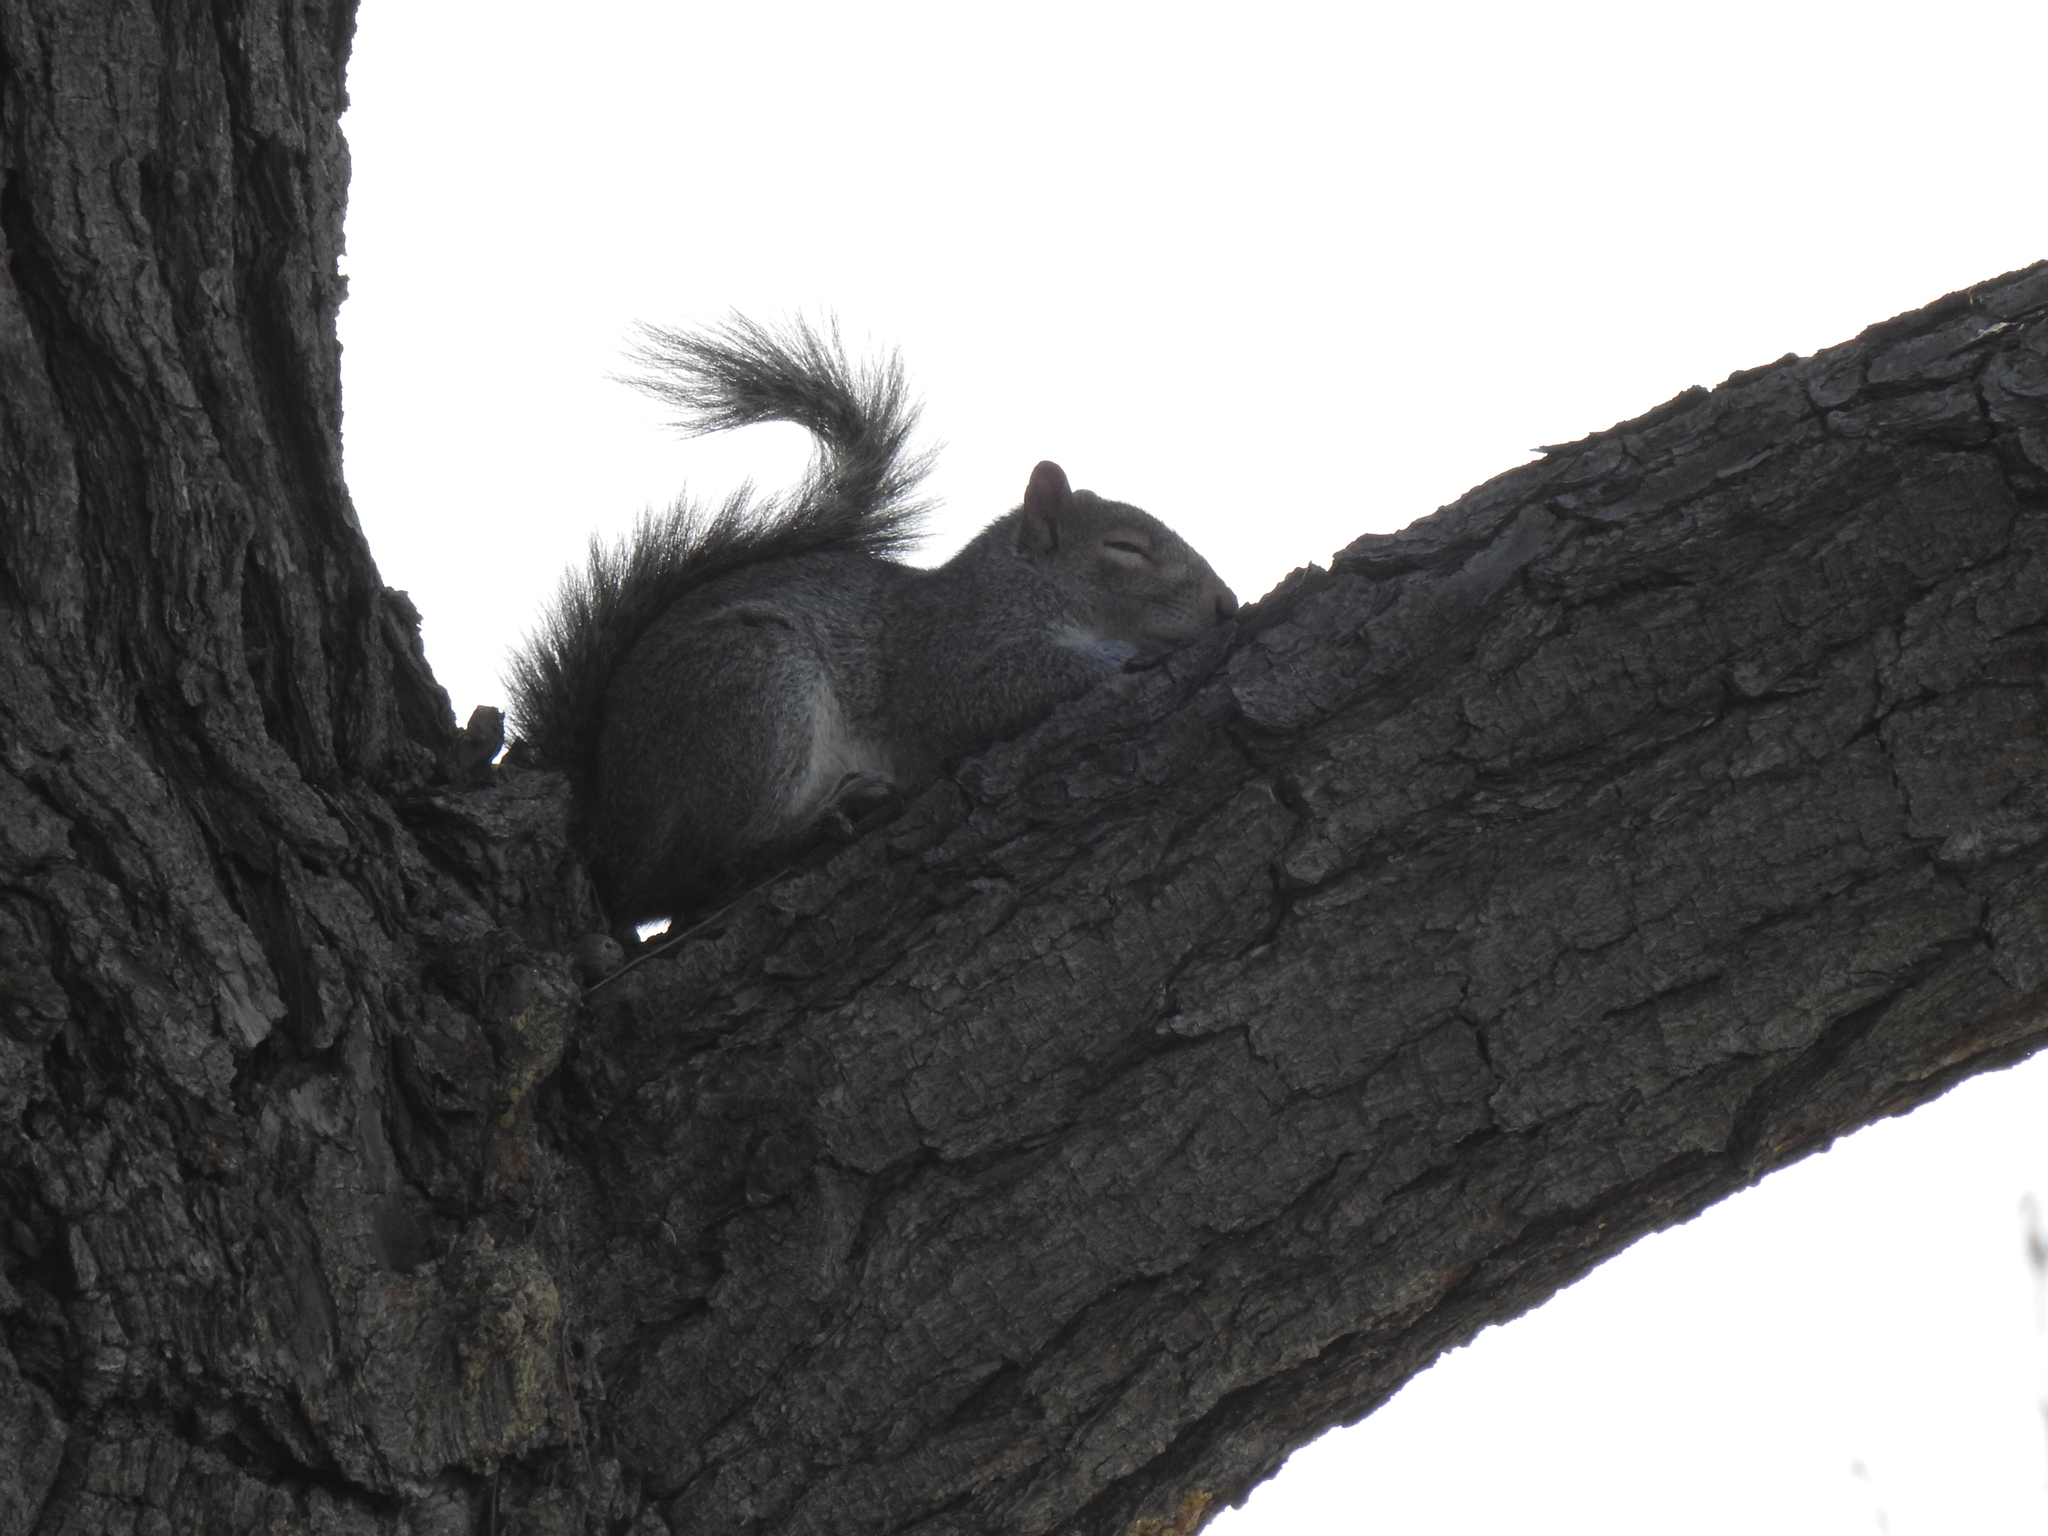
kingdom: Animalia
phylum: Chordata
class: Mammalia
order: Rodentia
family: Sciuridae
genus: Sciurus
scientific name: Sciurus carolinensis
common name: Eastern gray squirrel
